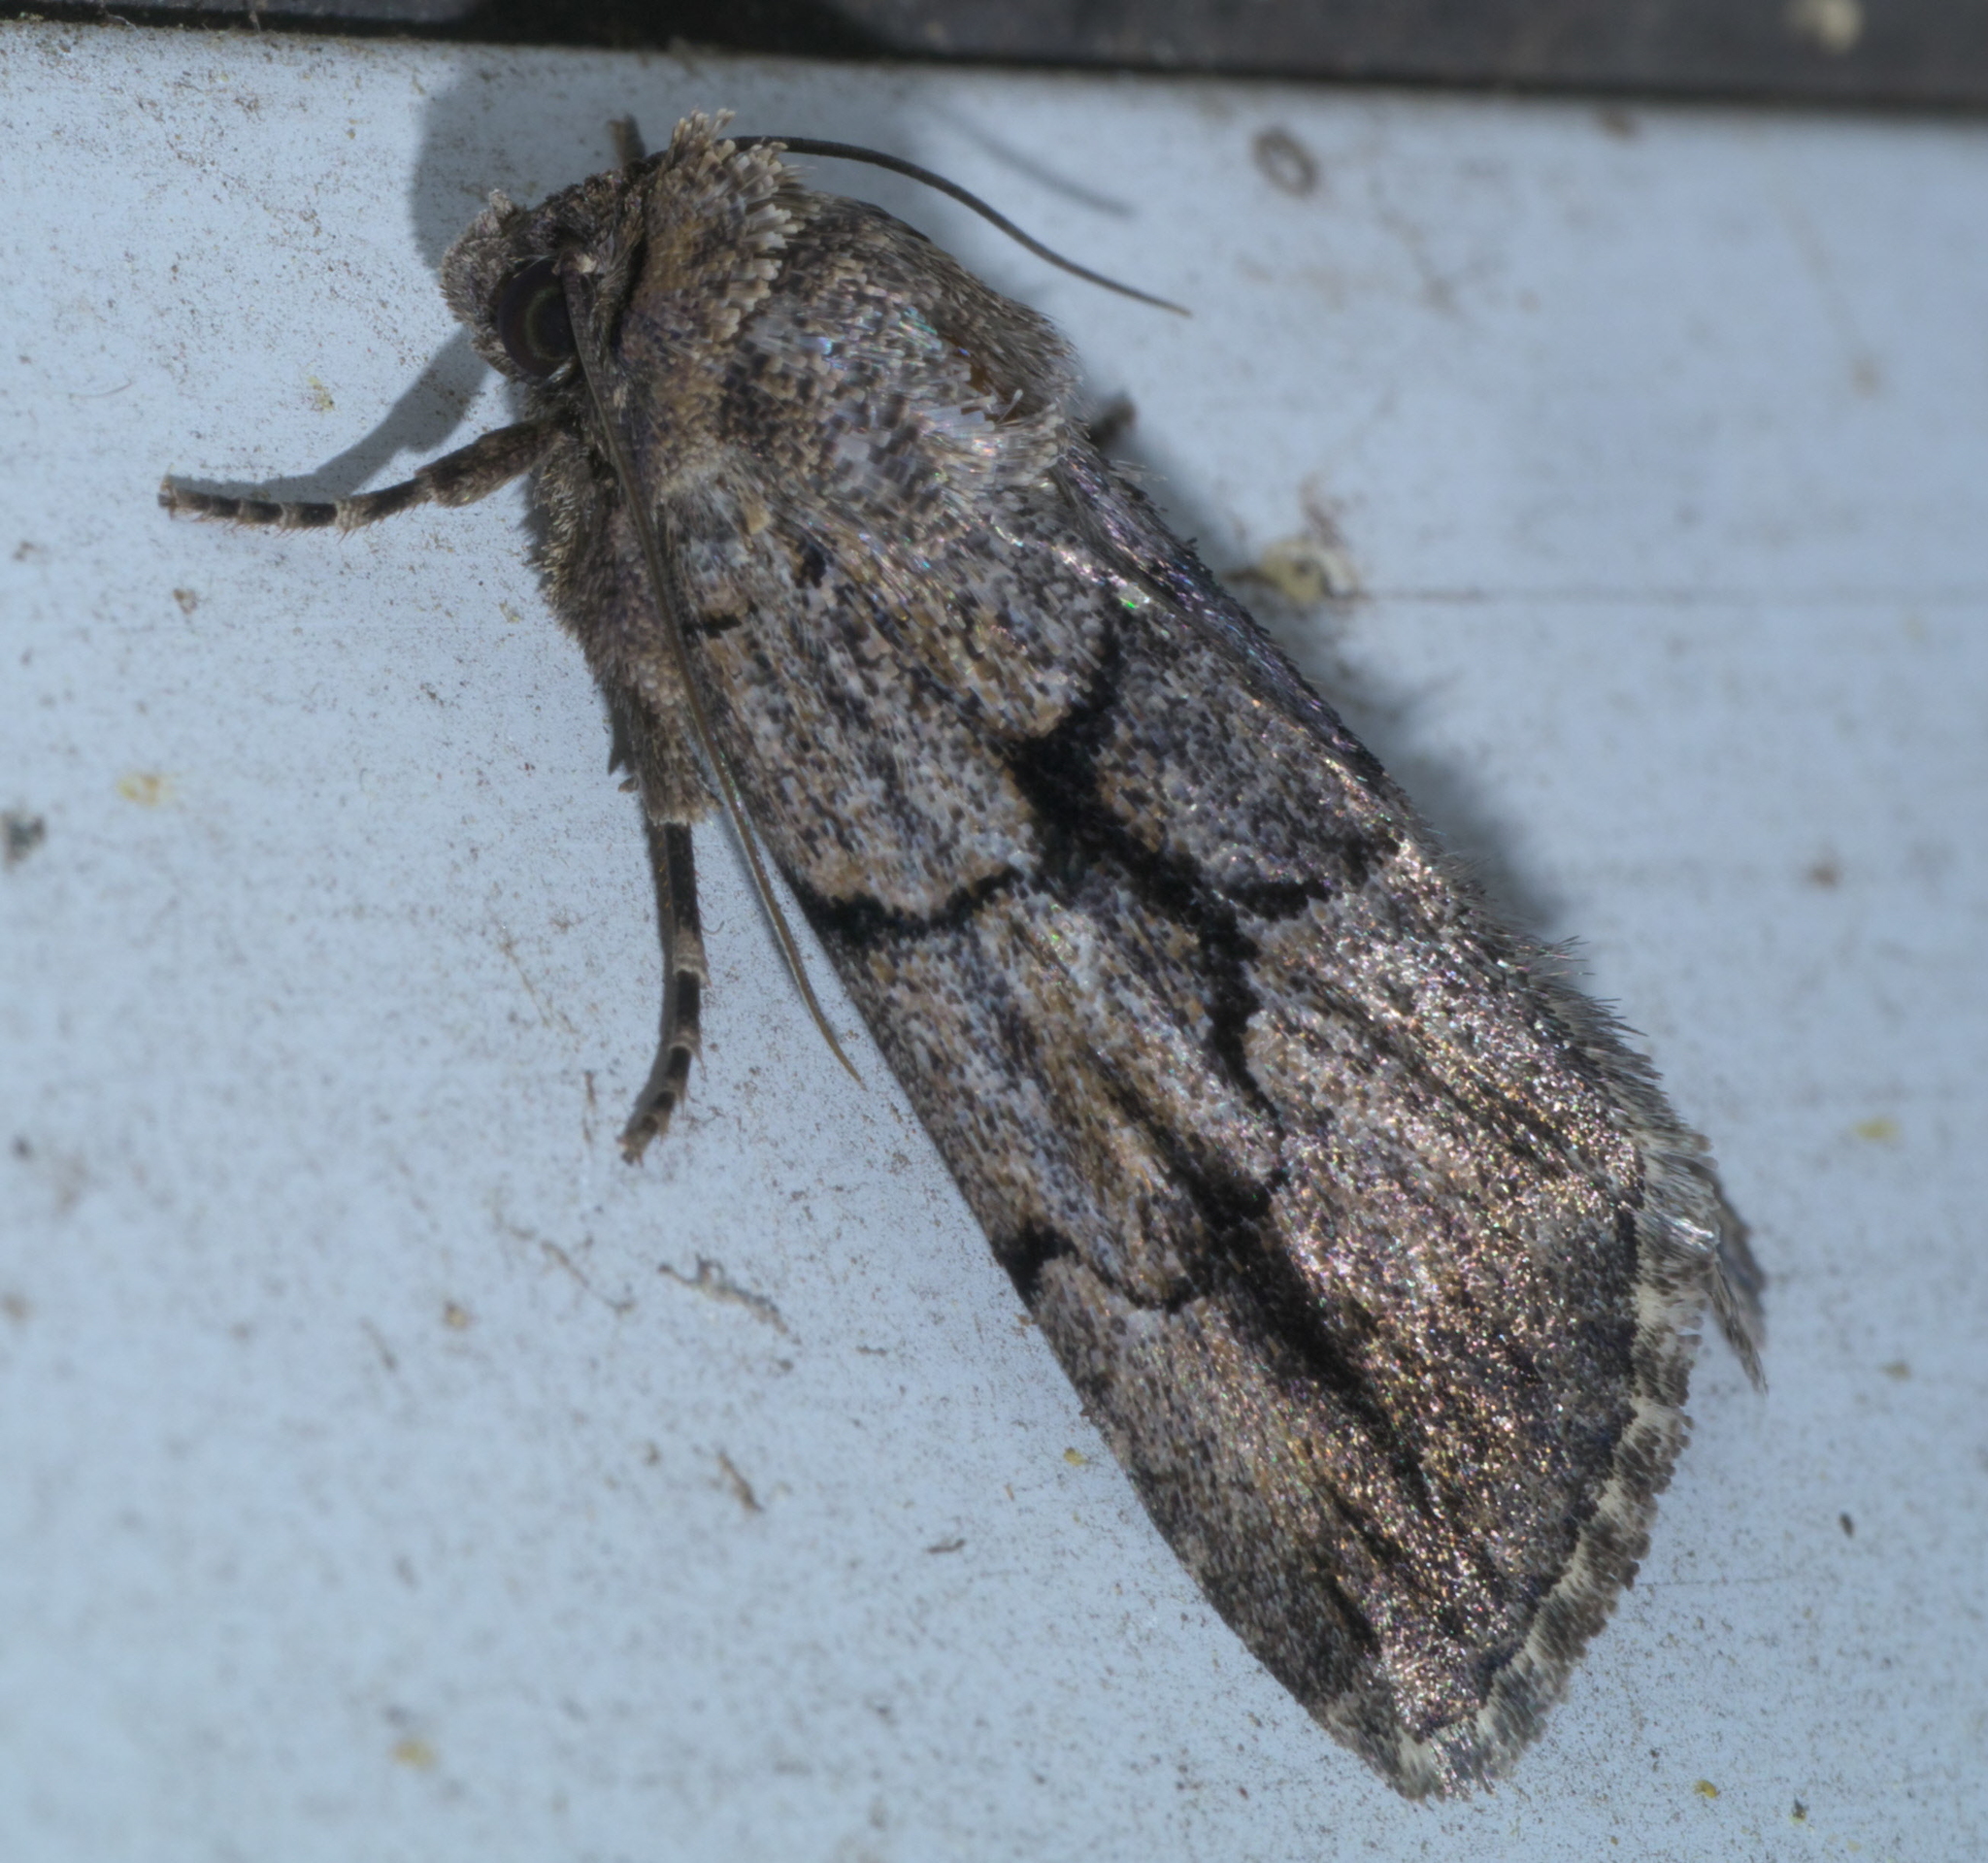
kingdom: Animalia
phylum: Arthropoda
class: Insecta
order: Lepidoptera
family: Noctuidae
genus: Sympistis
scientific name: Sympistis dinalda
